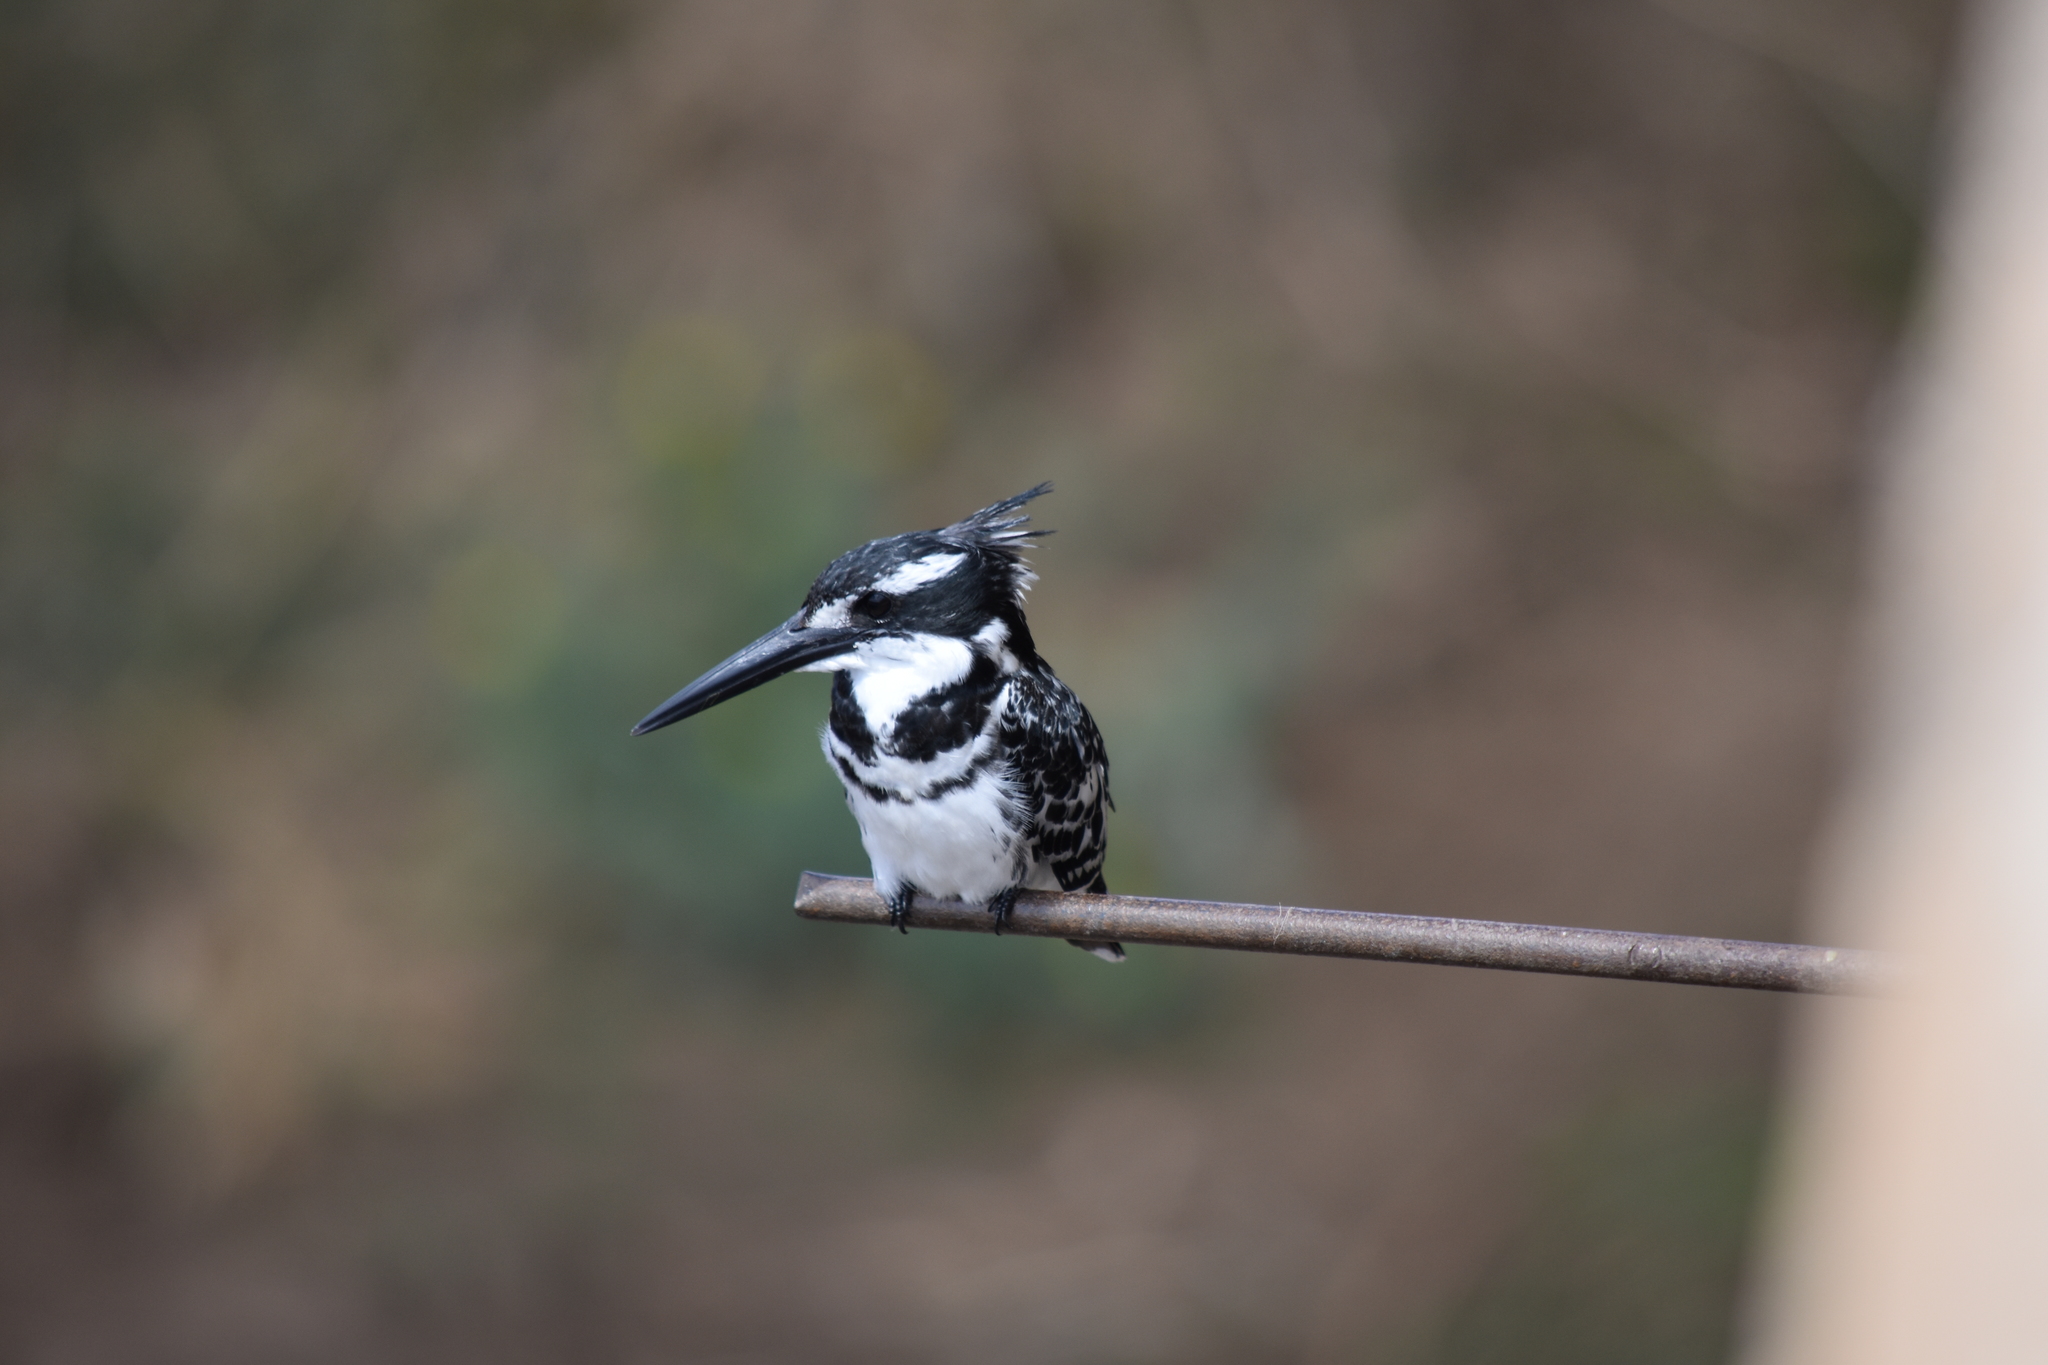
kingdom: Animalia
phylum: Chordata
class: Aves
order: Coraciiformes
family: Alcedinidae
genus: Ceryle
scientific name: Ceryle rudis
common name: Pied kingfisher
